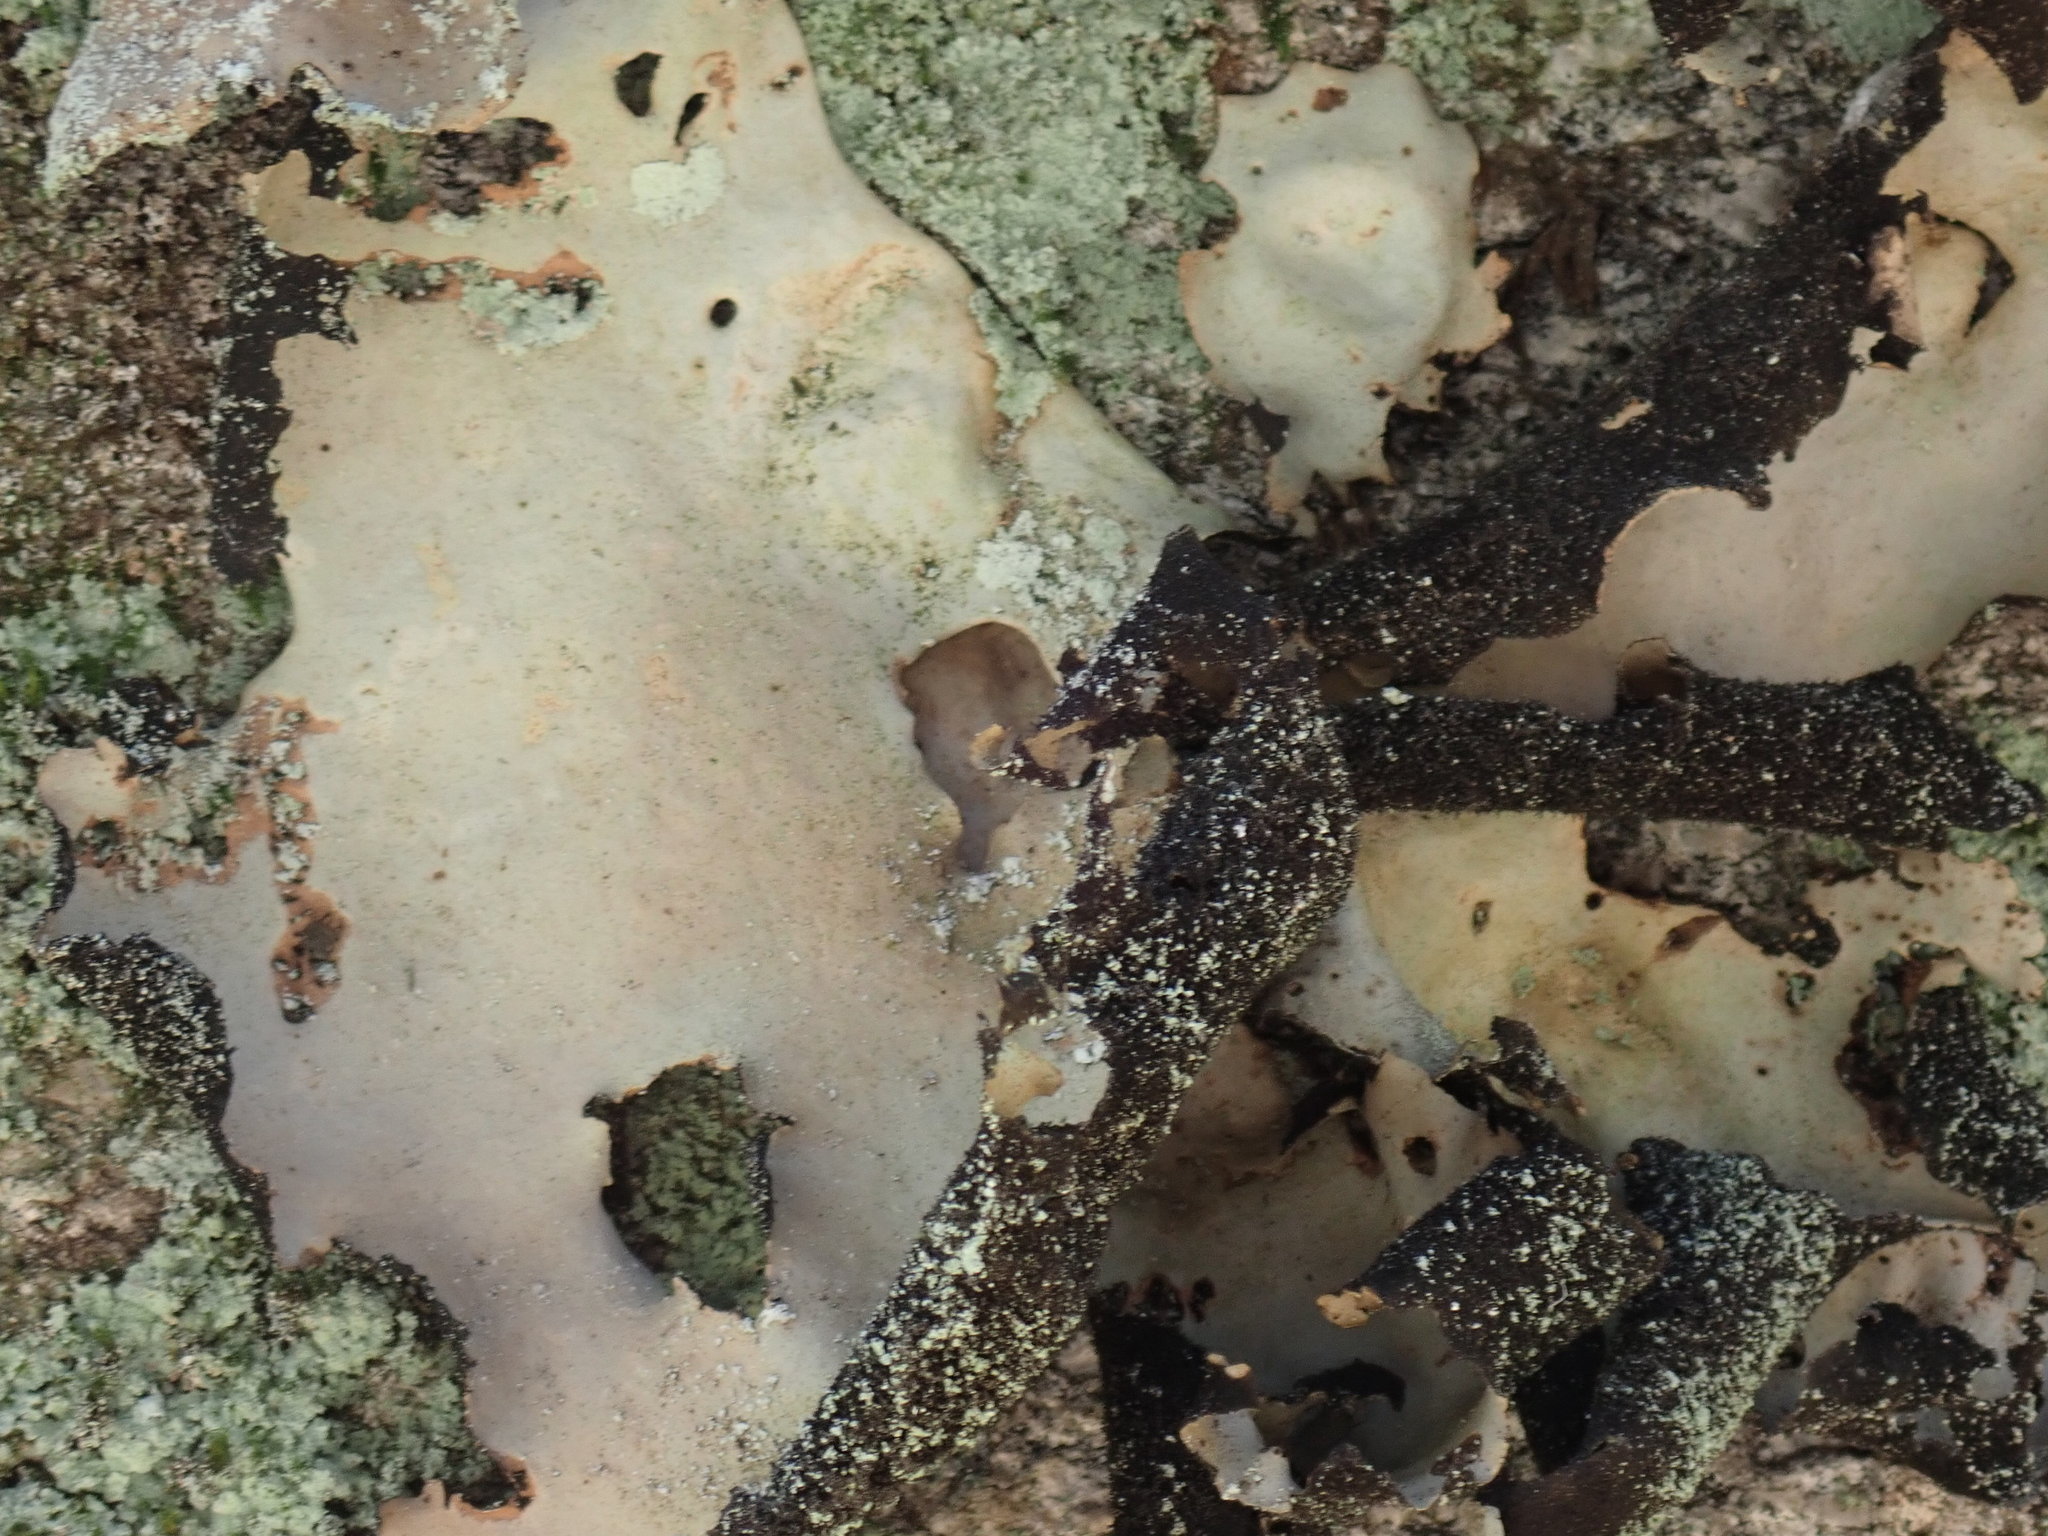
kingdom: Fungi
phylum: Ascomycota
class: Lecanoromycetes
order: Umbilicariales
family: Umbilicariaceae
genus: Umbilicaria
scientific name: Umbilicaria mammulata
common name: Smooth rock tripe
